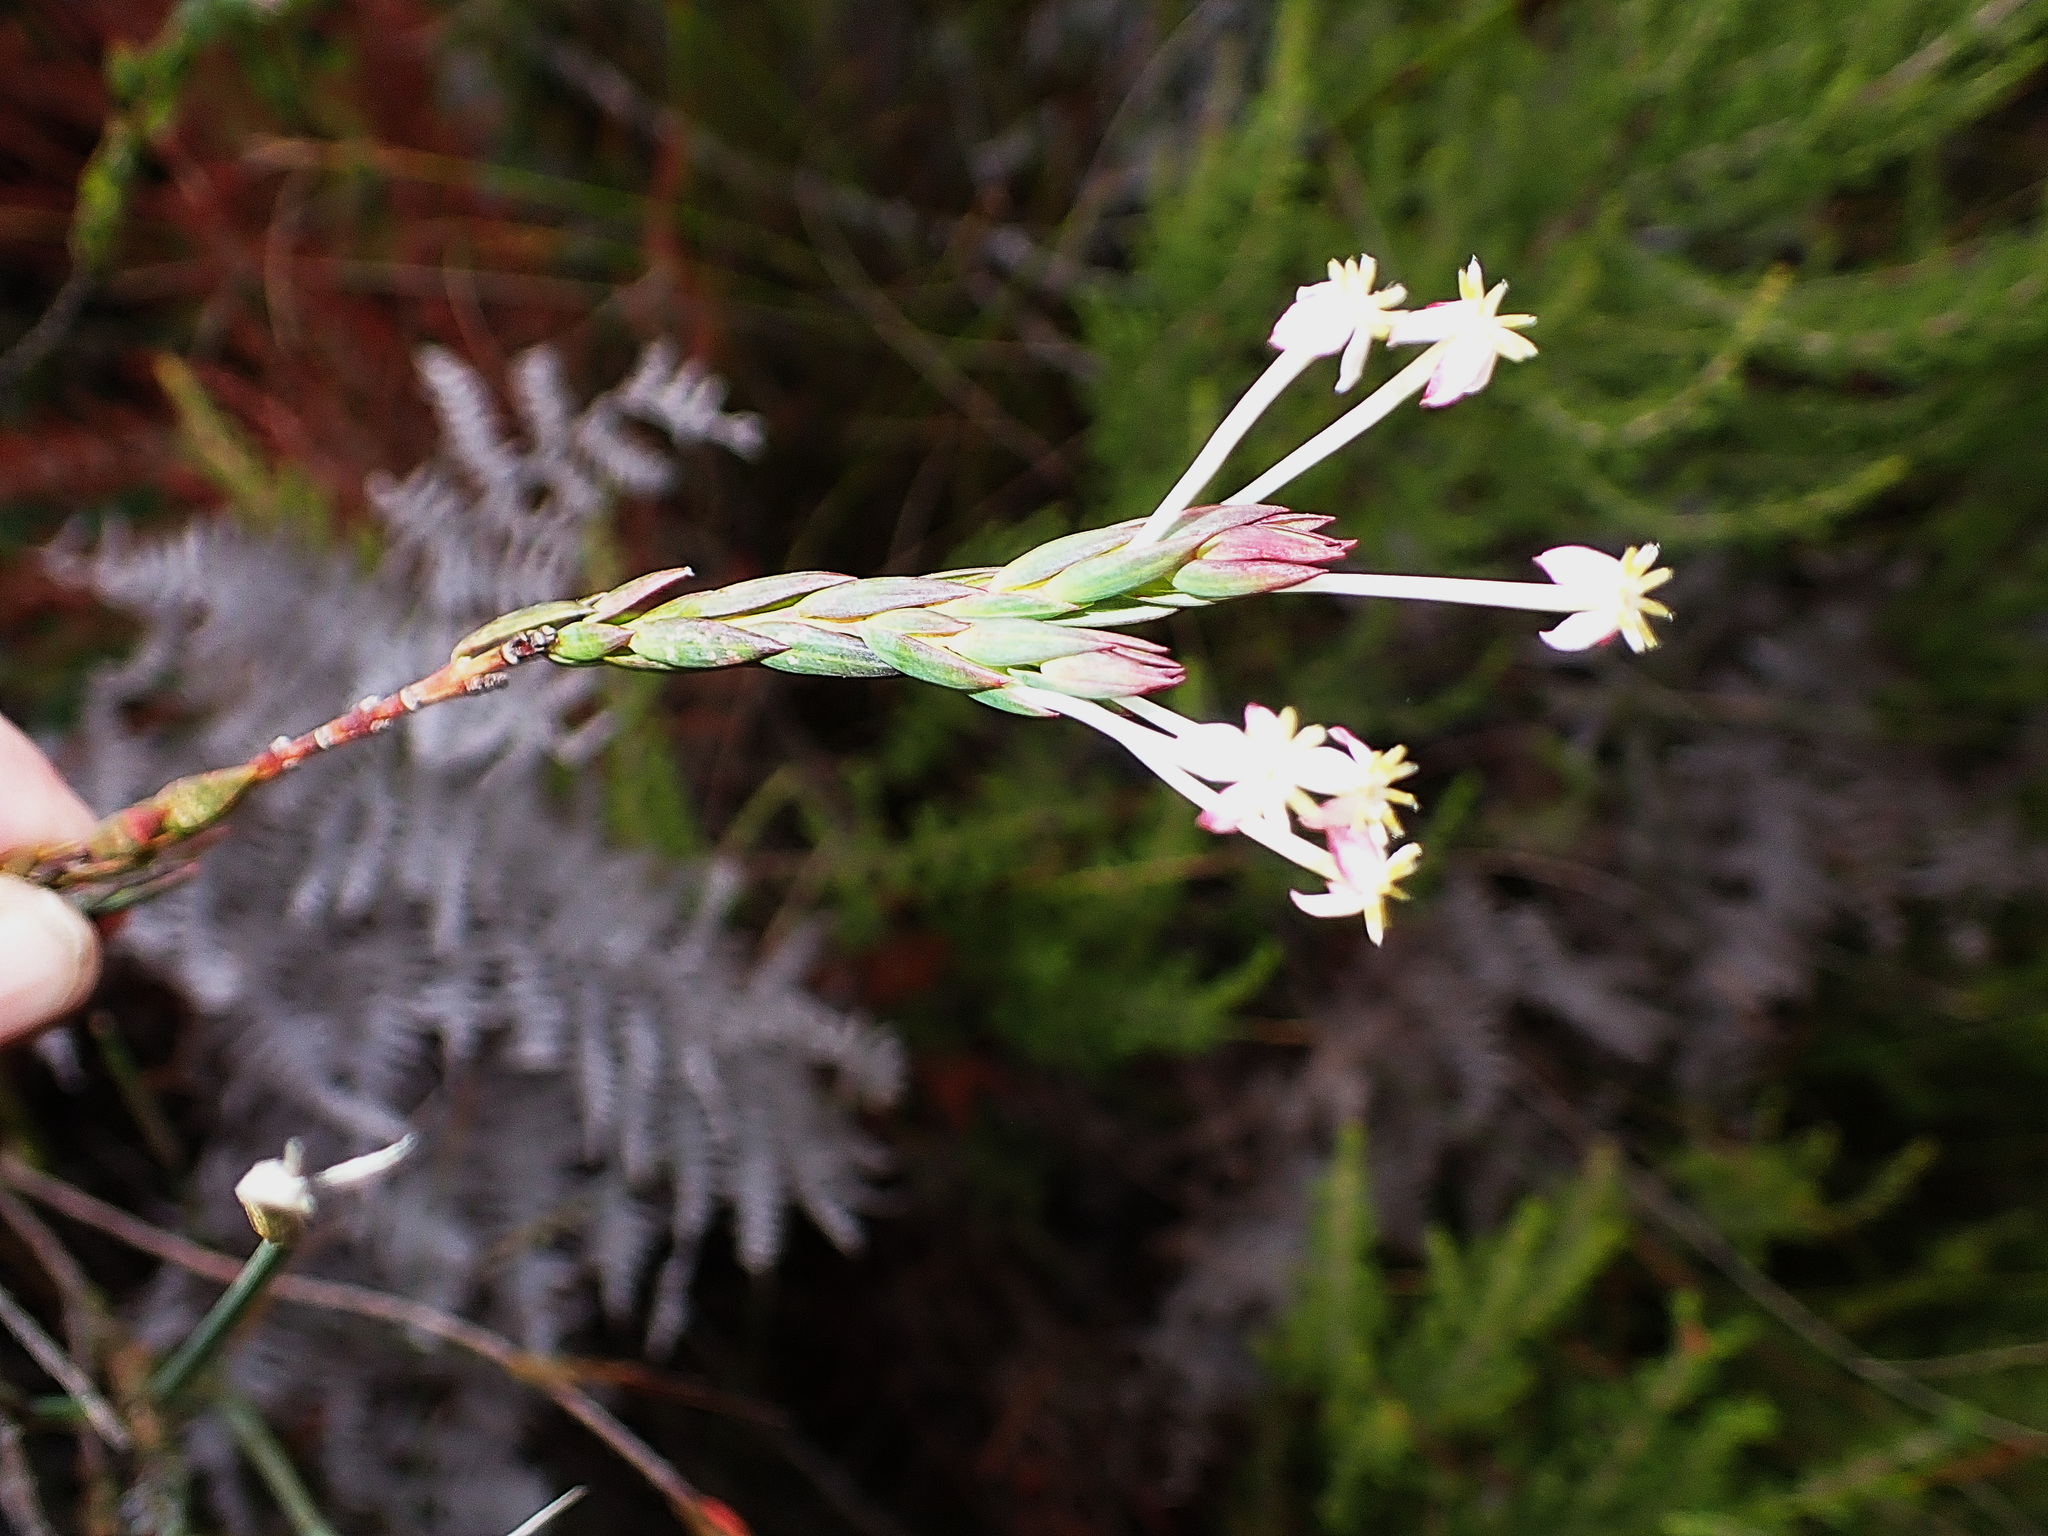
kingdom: Plantae
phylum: Tracheophyta
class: Magnoliopsida
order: Malvales
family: Thymelaeaceae
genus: Struthiola
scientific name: Struthiola dodecandra
